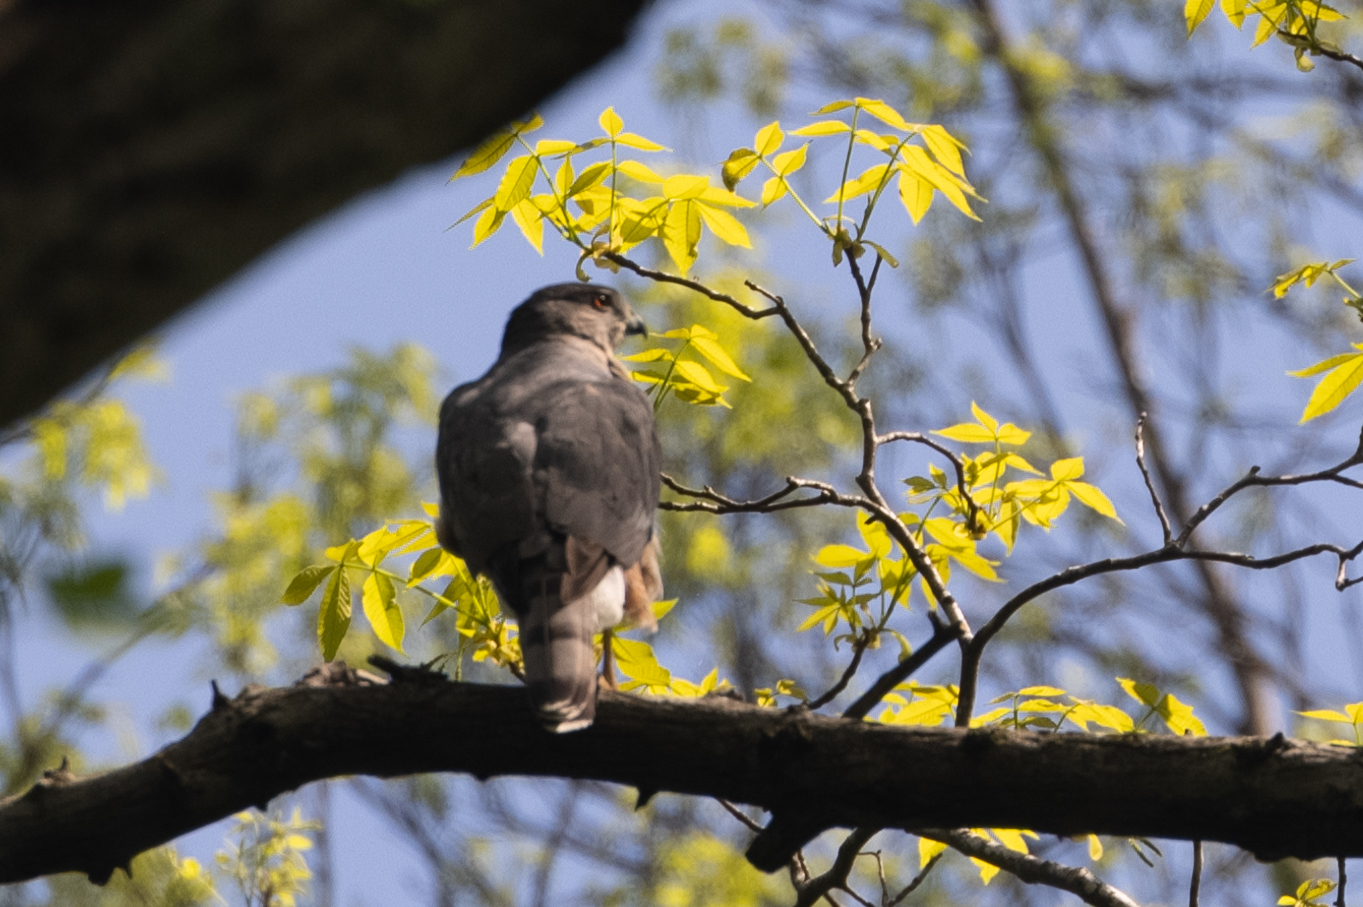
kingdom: Animalia
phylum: Chordata
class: Aves
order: Accipitriformes
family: Accipitridae
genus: Accipiter
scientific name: Accipiter cooperii
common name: Cooper's hawk
